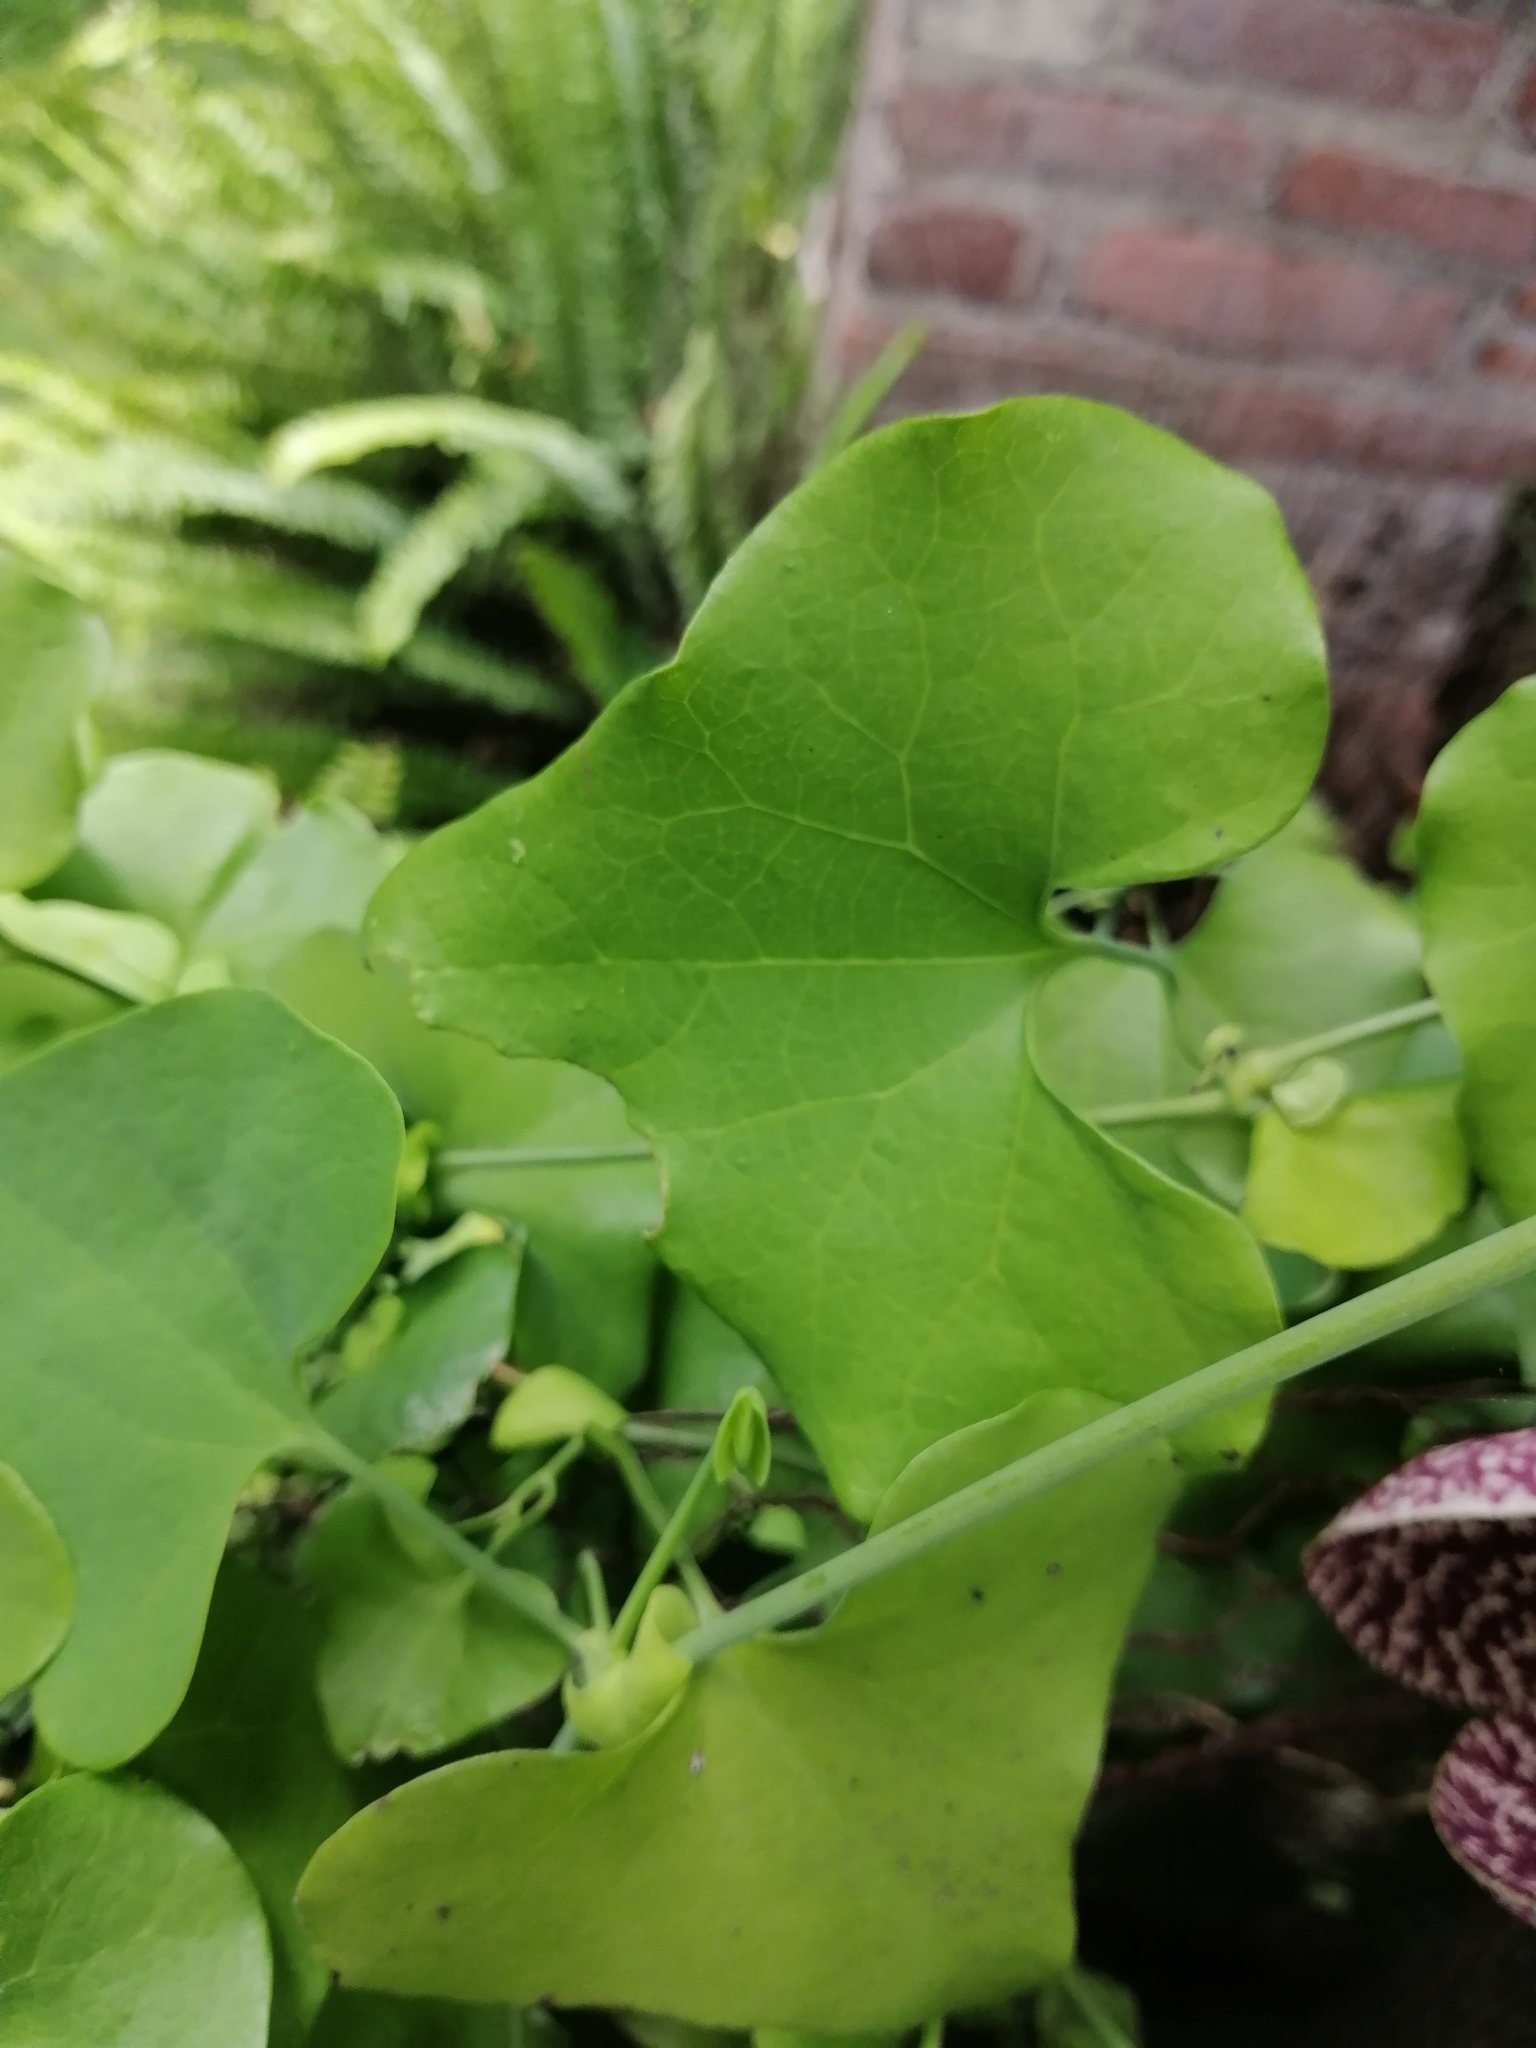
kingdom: Plantae
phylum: Tracheophyta
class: Magnoliopsida
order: Piperales
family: Aristolochiaceae
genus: Aristolochia
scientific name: Aristolochia littoralis
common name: Duck
